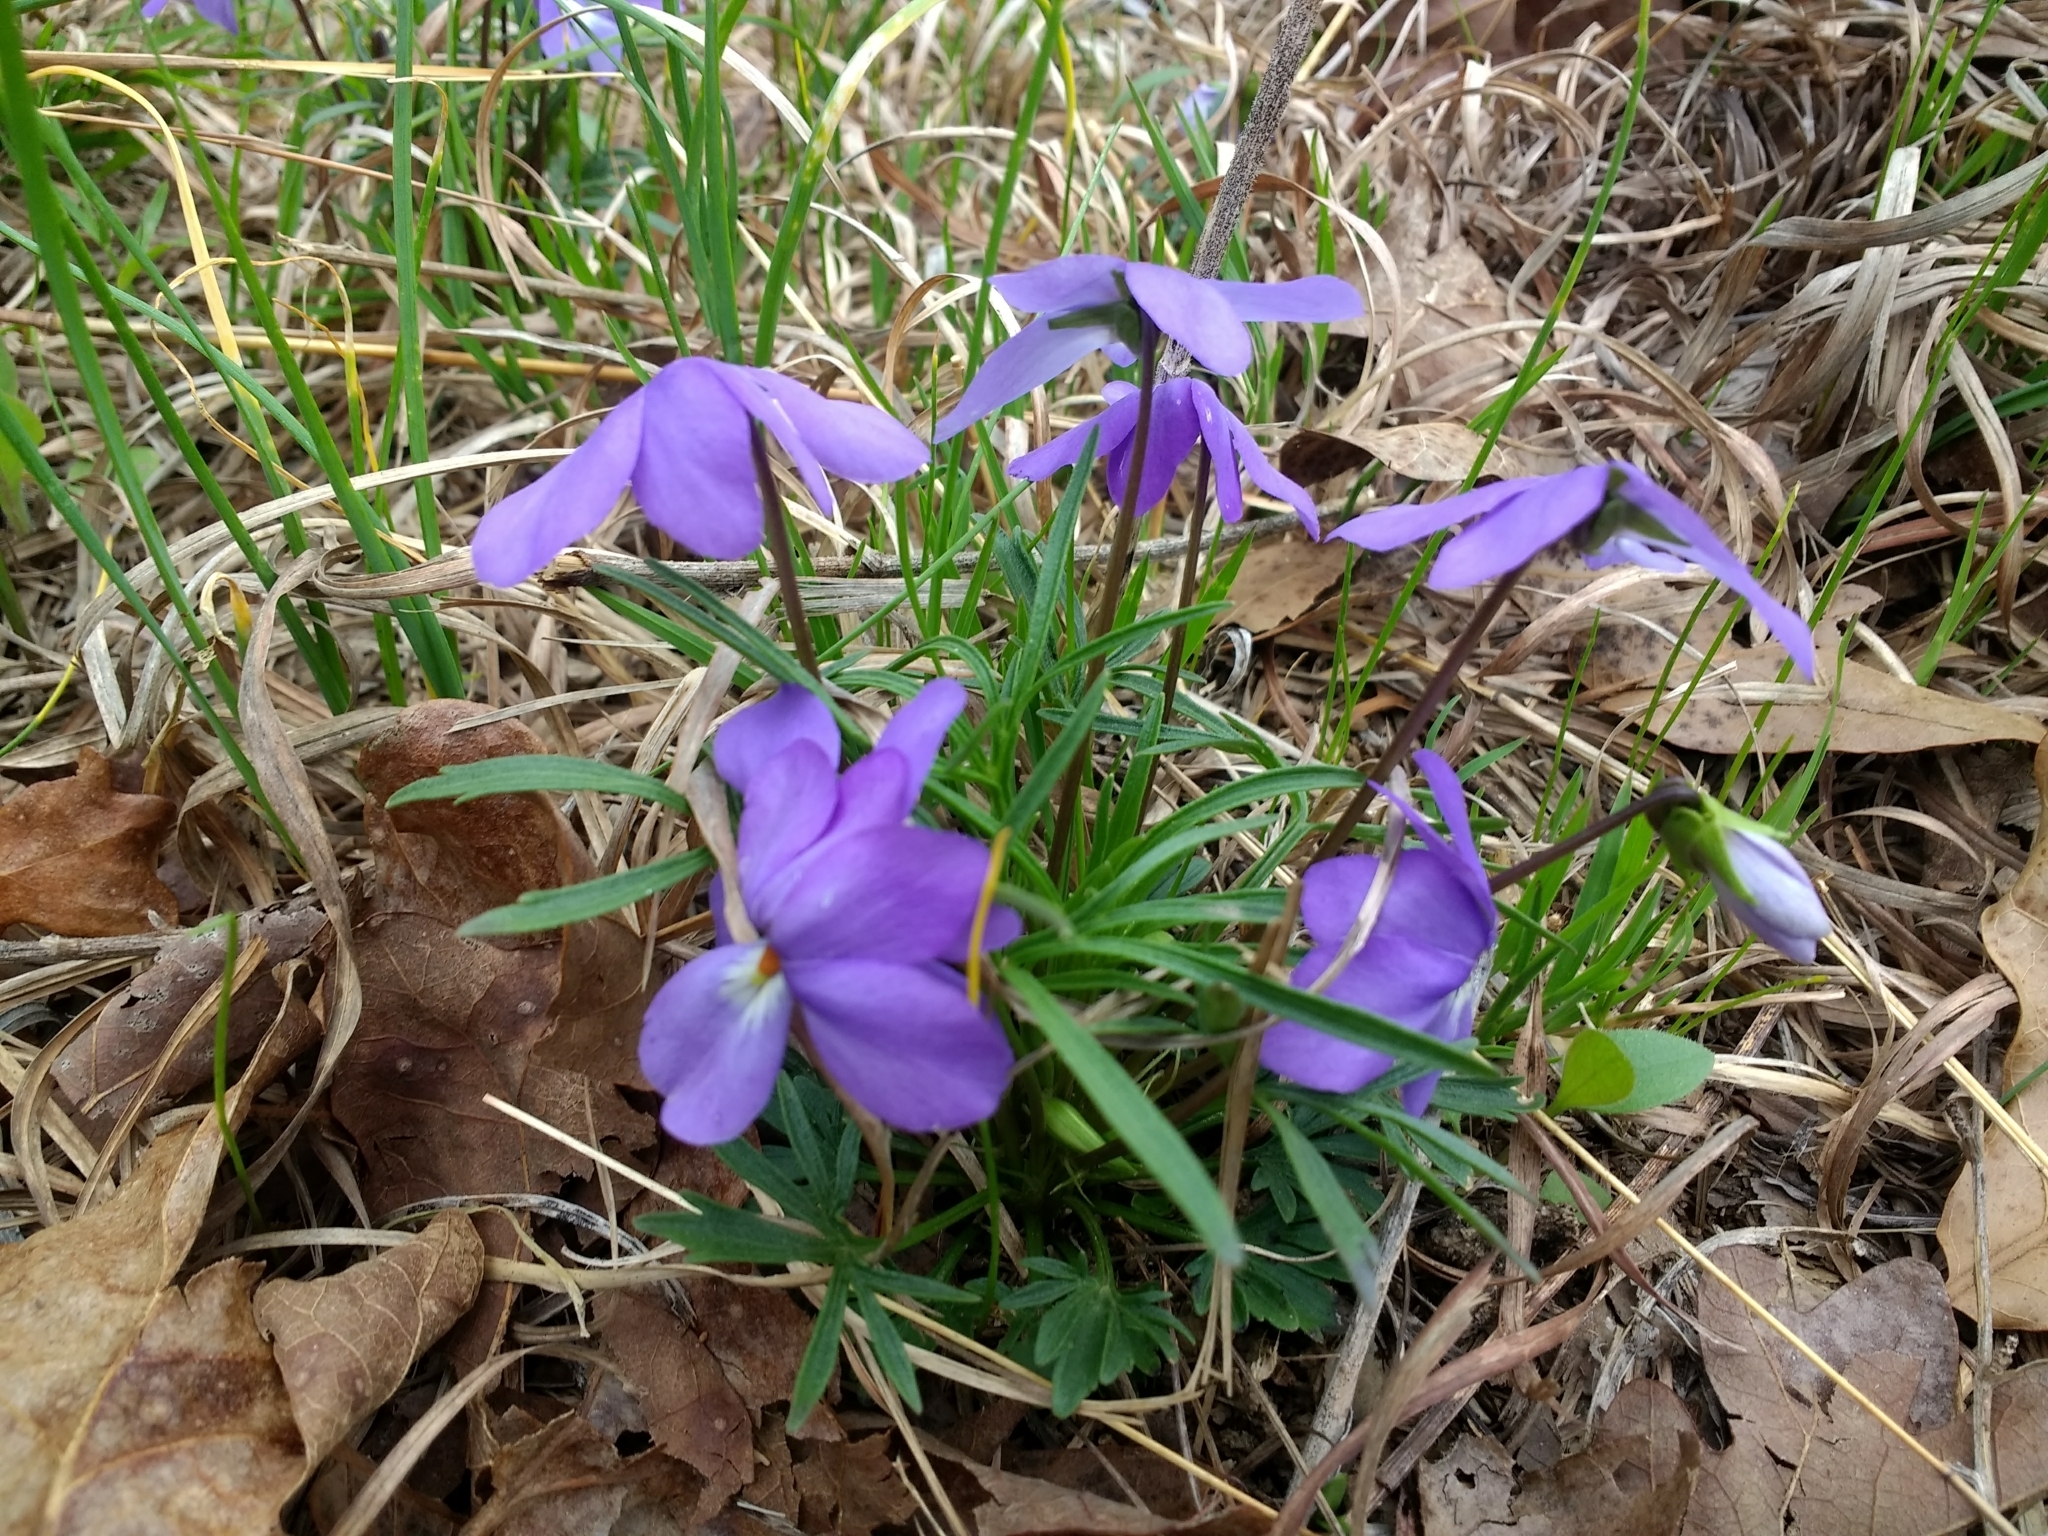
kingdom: Plantae
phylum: Tracheophyta
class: Magnoliopsida
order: Malpighiales
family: Violaceae
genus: Viola
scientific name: Viola pedata
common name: Pansy violet
